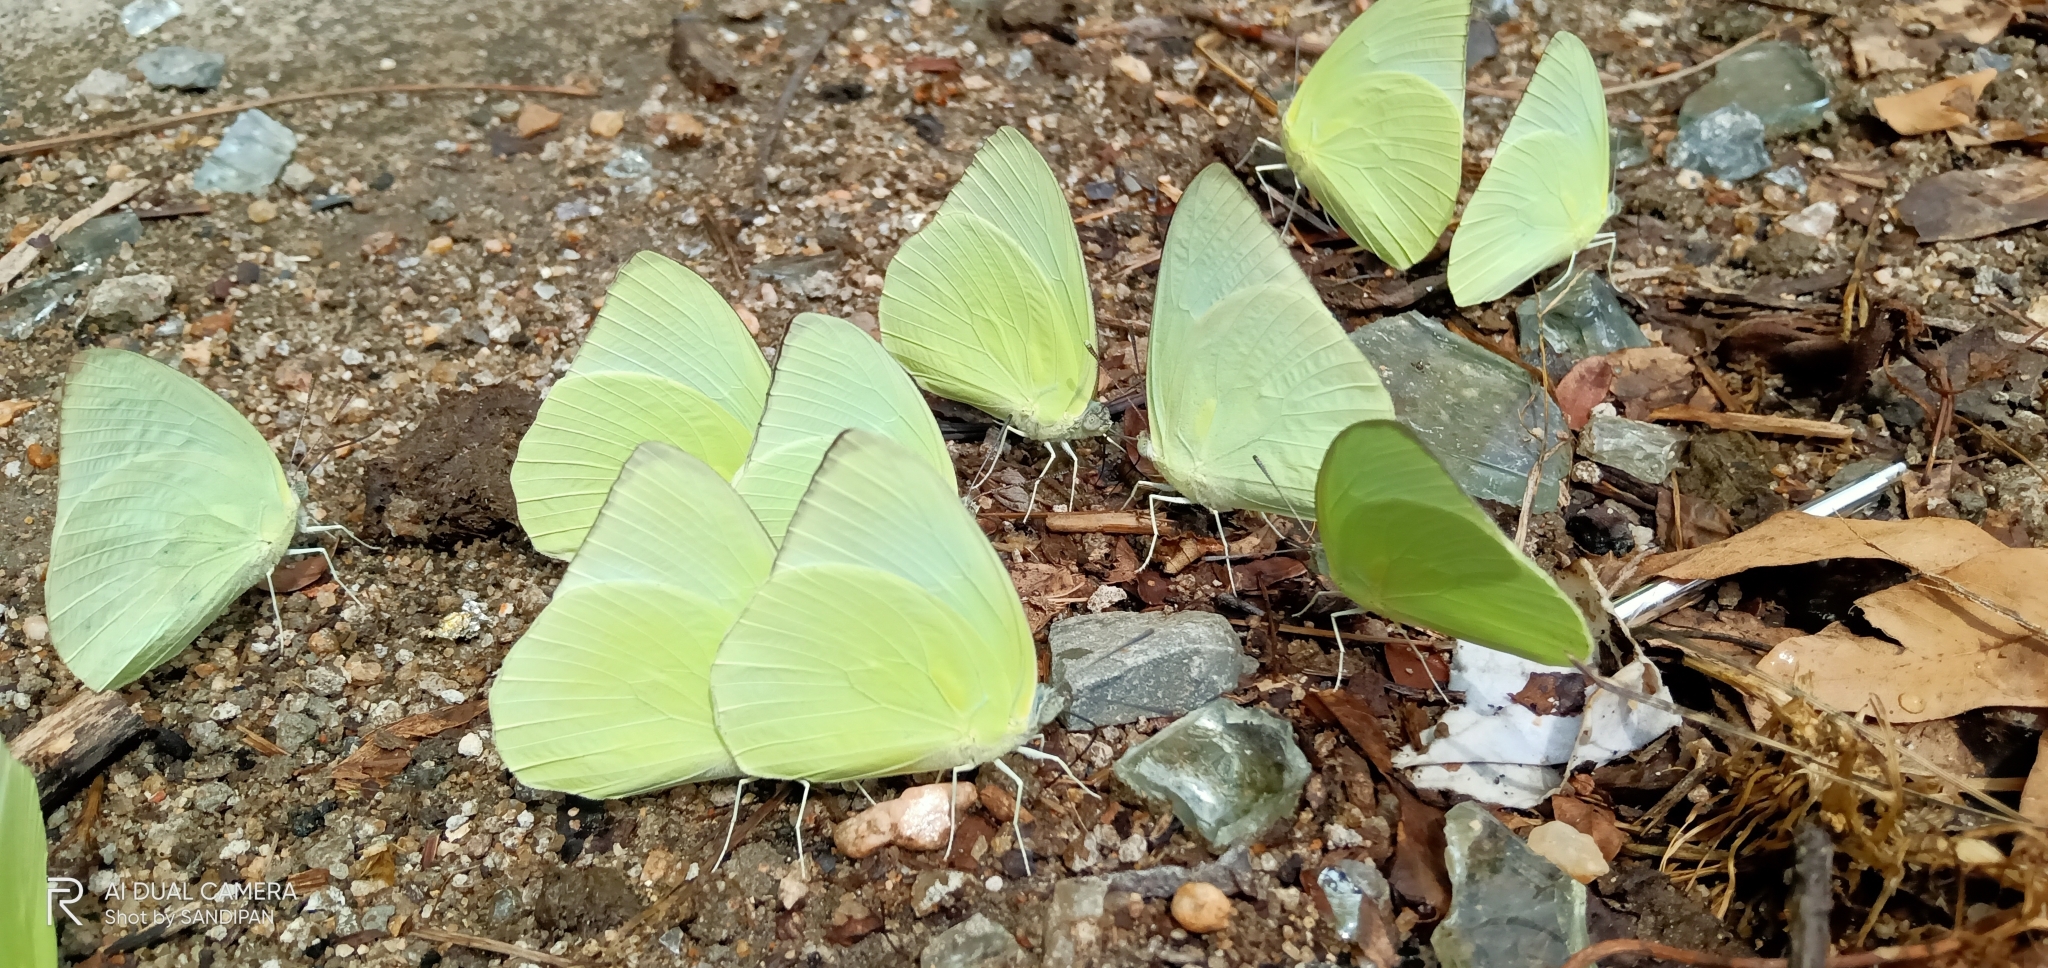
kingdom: Animalia
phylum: Arthropoda
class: Insecta
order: Lepidoptera
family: Pieridae
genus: Catopsilia
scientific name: Catopsilia pomona
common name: Common emigrant
